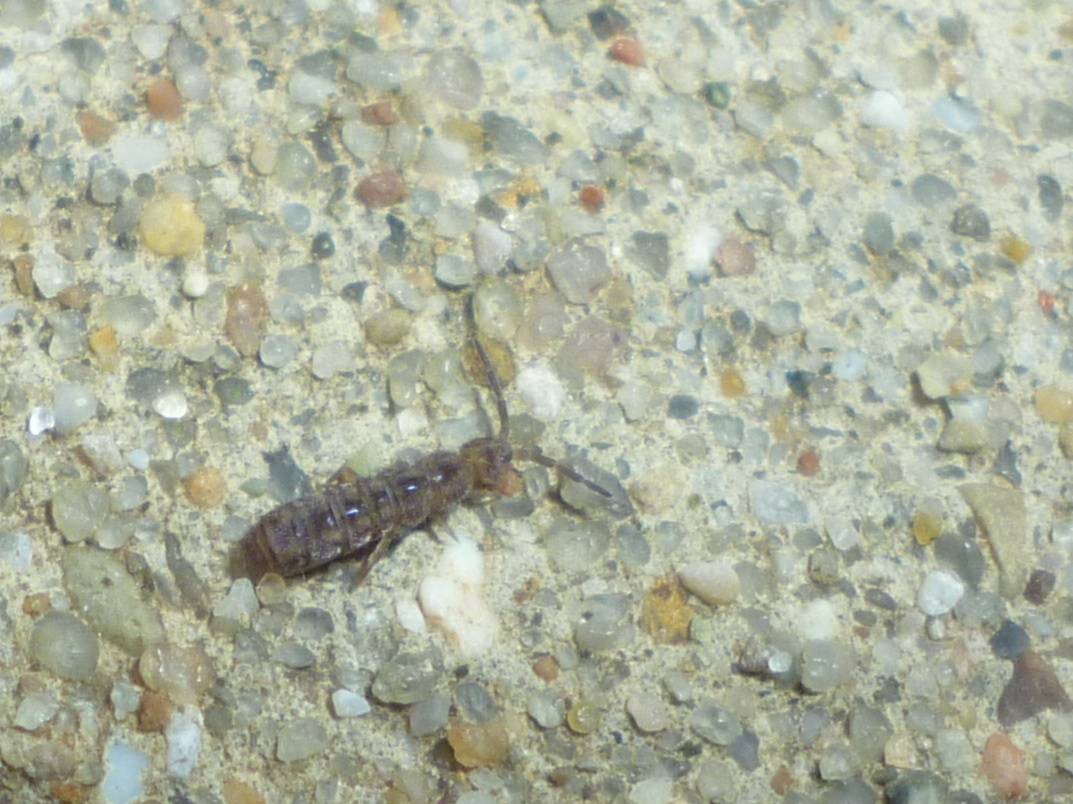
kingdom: Animalia
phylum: Arthropoda
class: Collembola
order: Entomobryomorpha
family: Isotomidae
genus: Isotoma
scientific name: Isotoma delta
